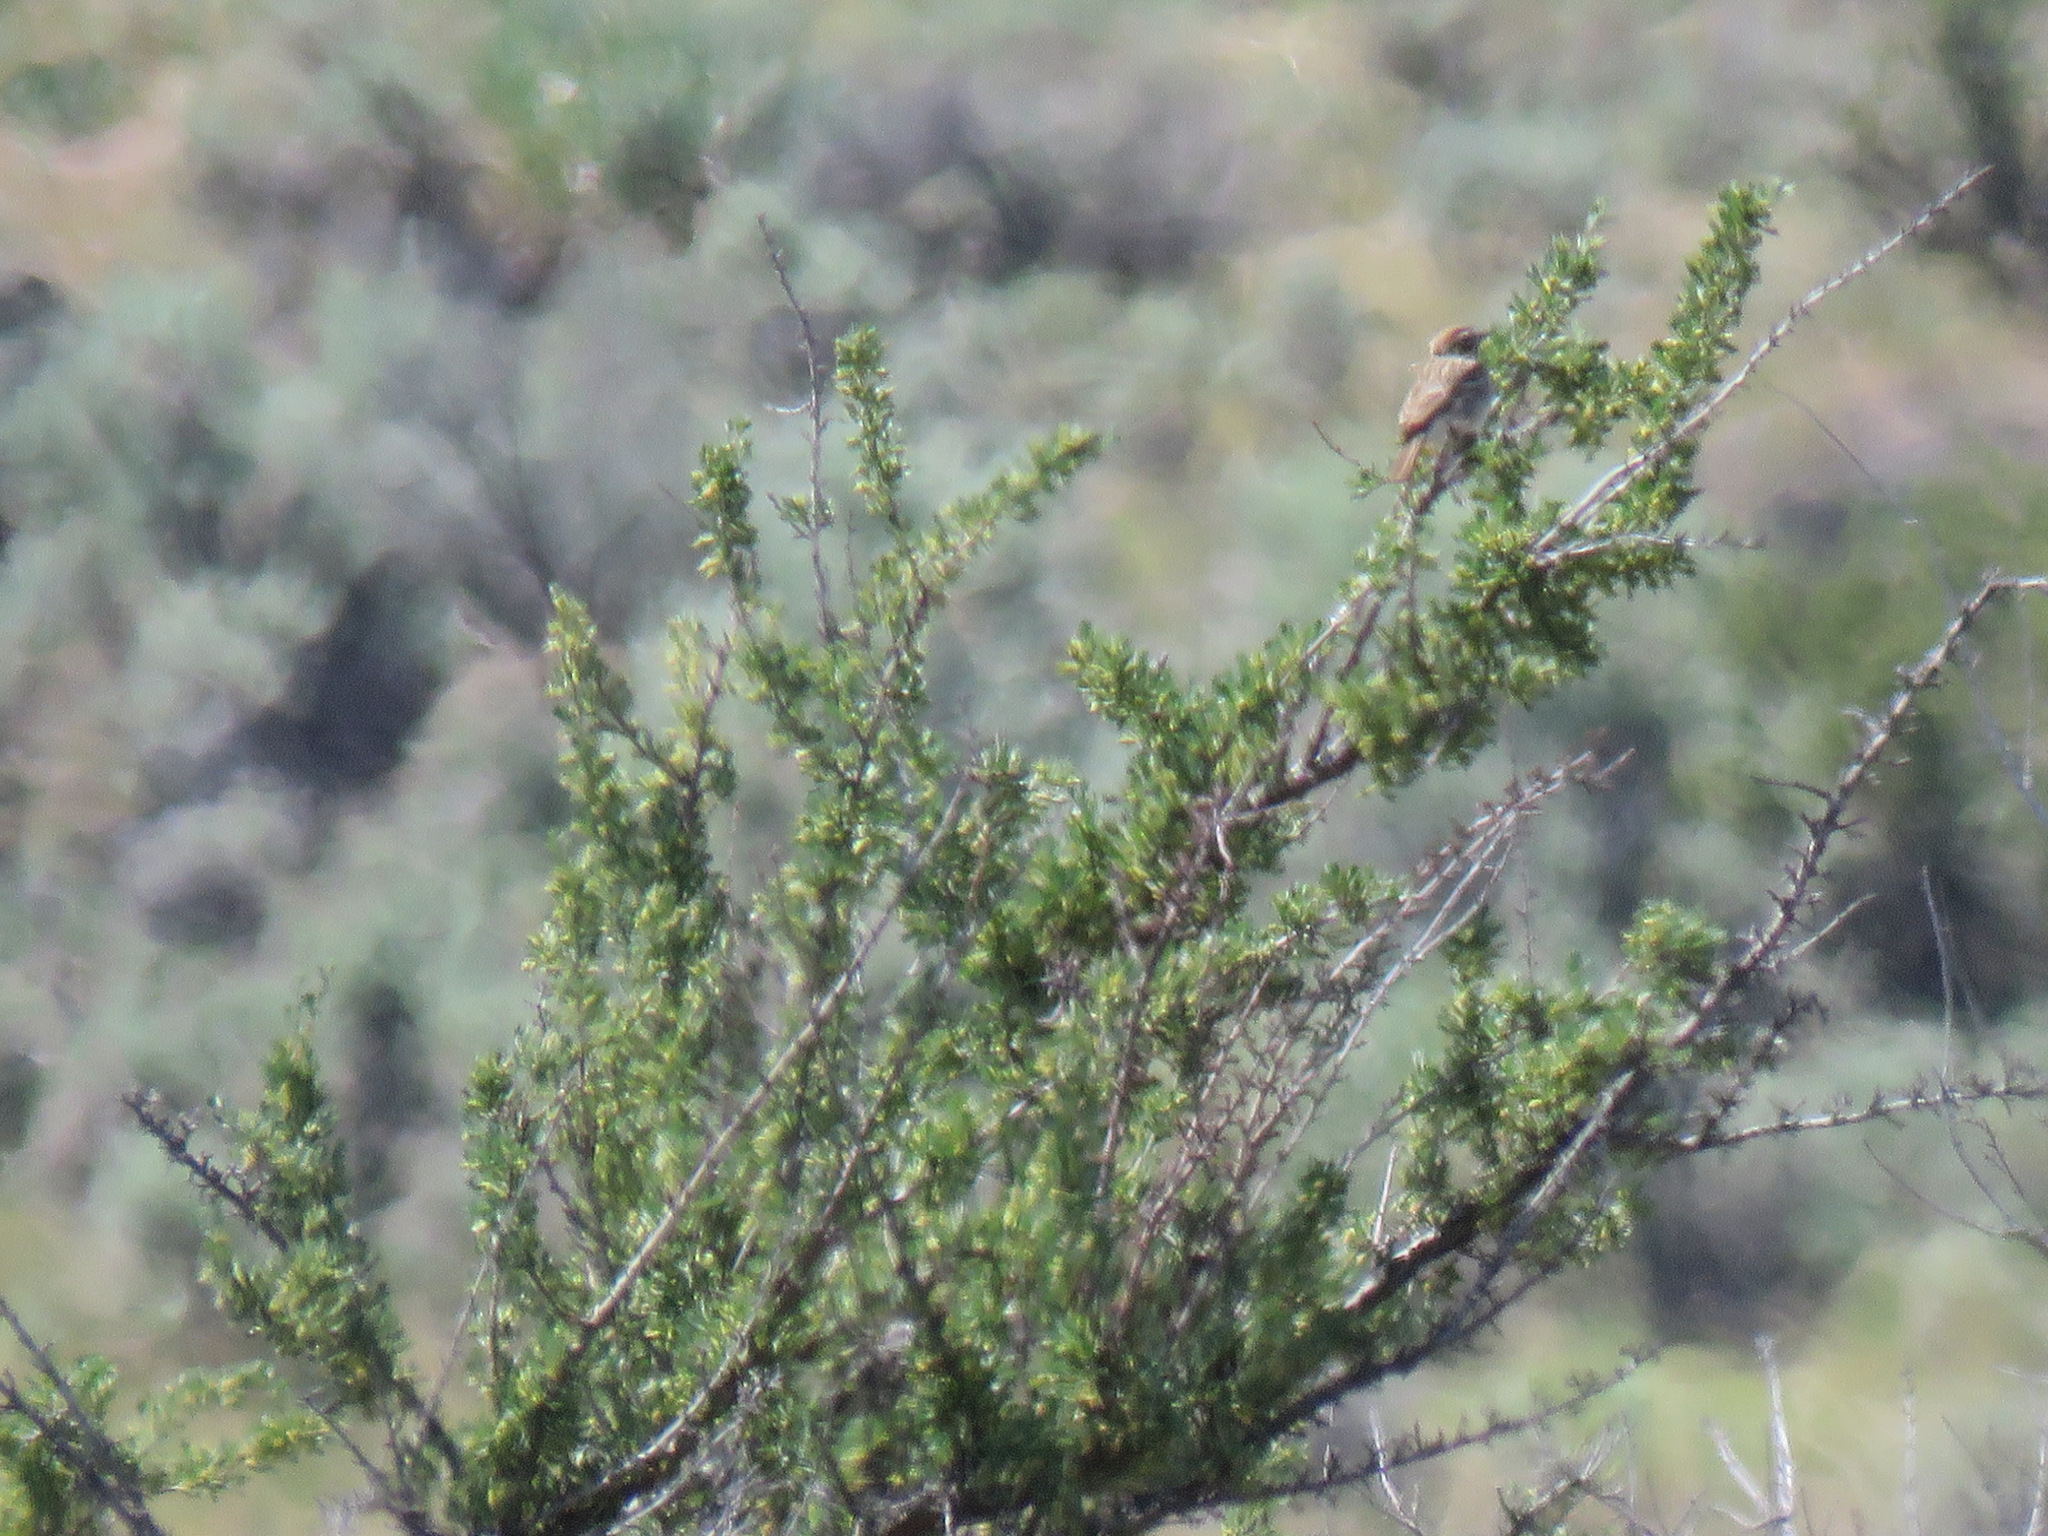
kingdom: Animalia
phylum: Chordata
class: Aves
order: Passeriformes
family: Passerellidae
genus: Chondestes
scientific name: Chondestes grammacus
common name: Lark sparrow
